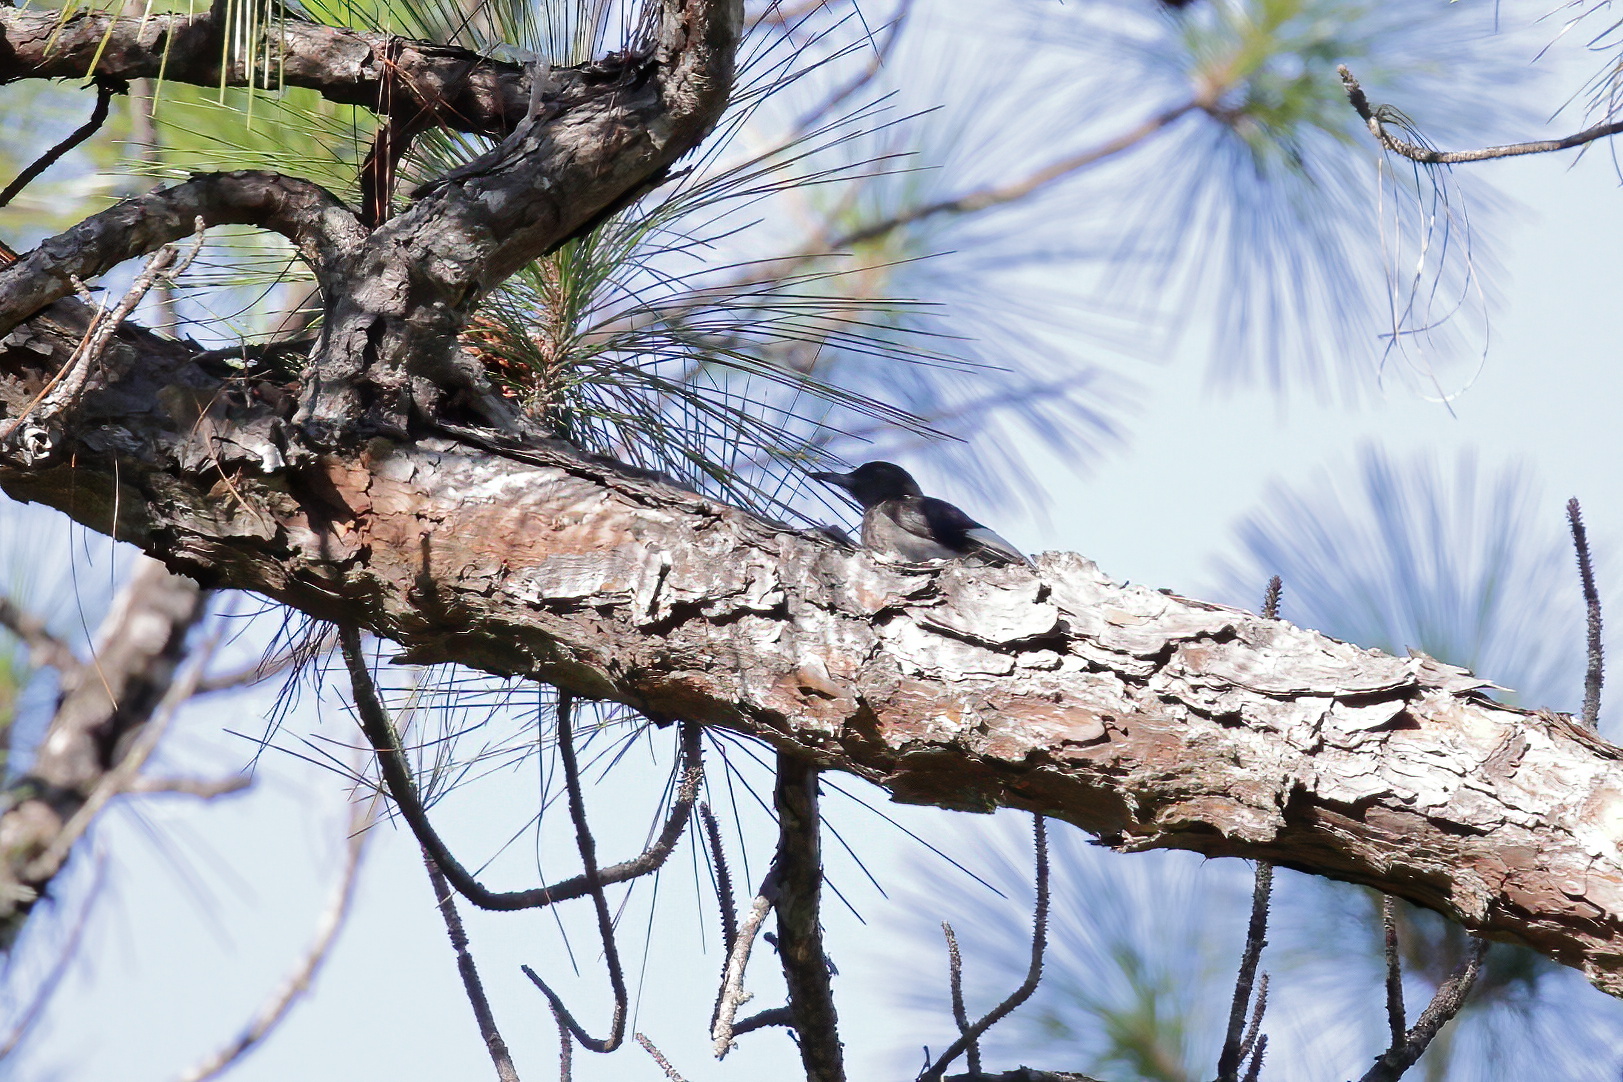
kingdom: Animalia
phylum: Chordata
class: Aves
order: Piciformes
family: Picidae
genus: Melanerpes
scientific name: Melanerpes erythrocephalus
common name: Red-headed woodpecker
